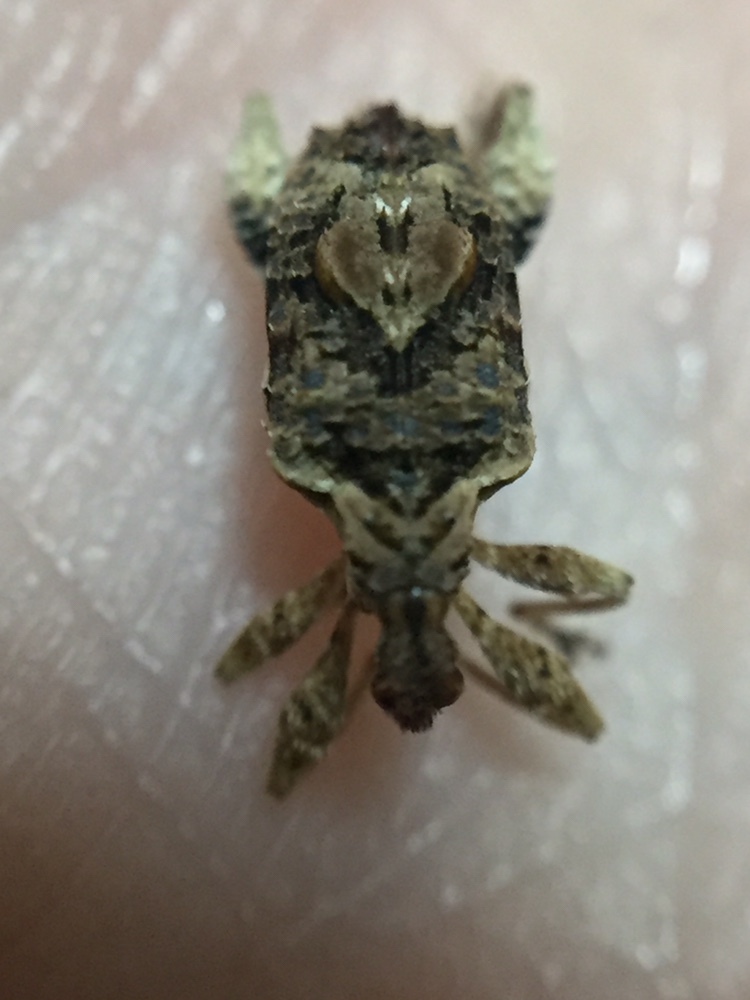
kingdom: Animalia
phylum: Arthropoda
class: Insecta
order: Coleoptera
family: Curculionidae
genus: Stephanorhynchus
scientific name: Stephanorhynchus curvipes
